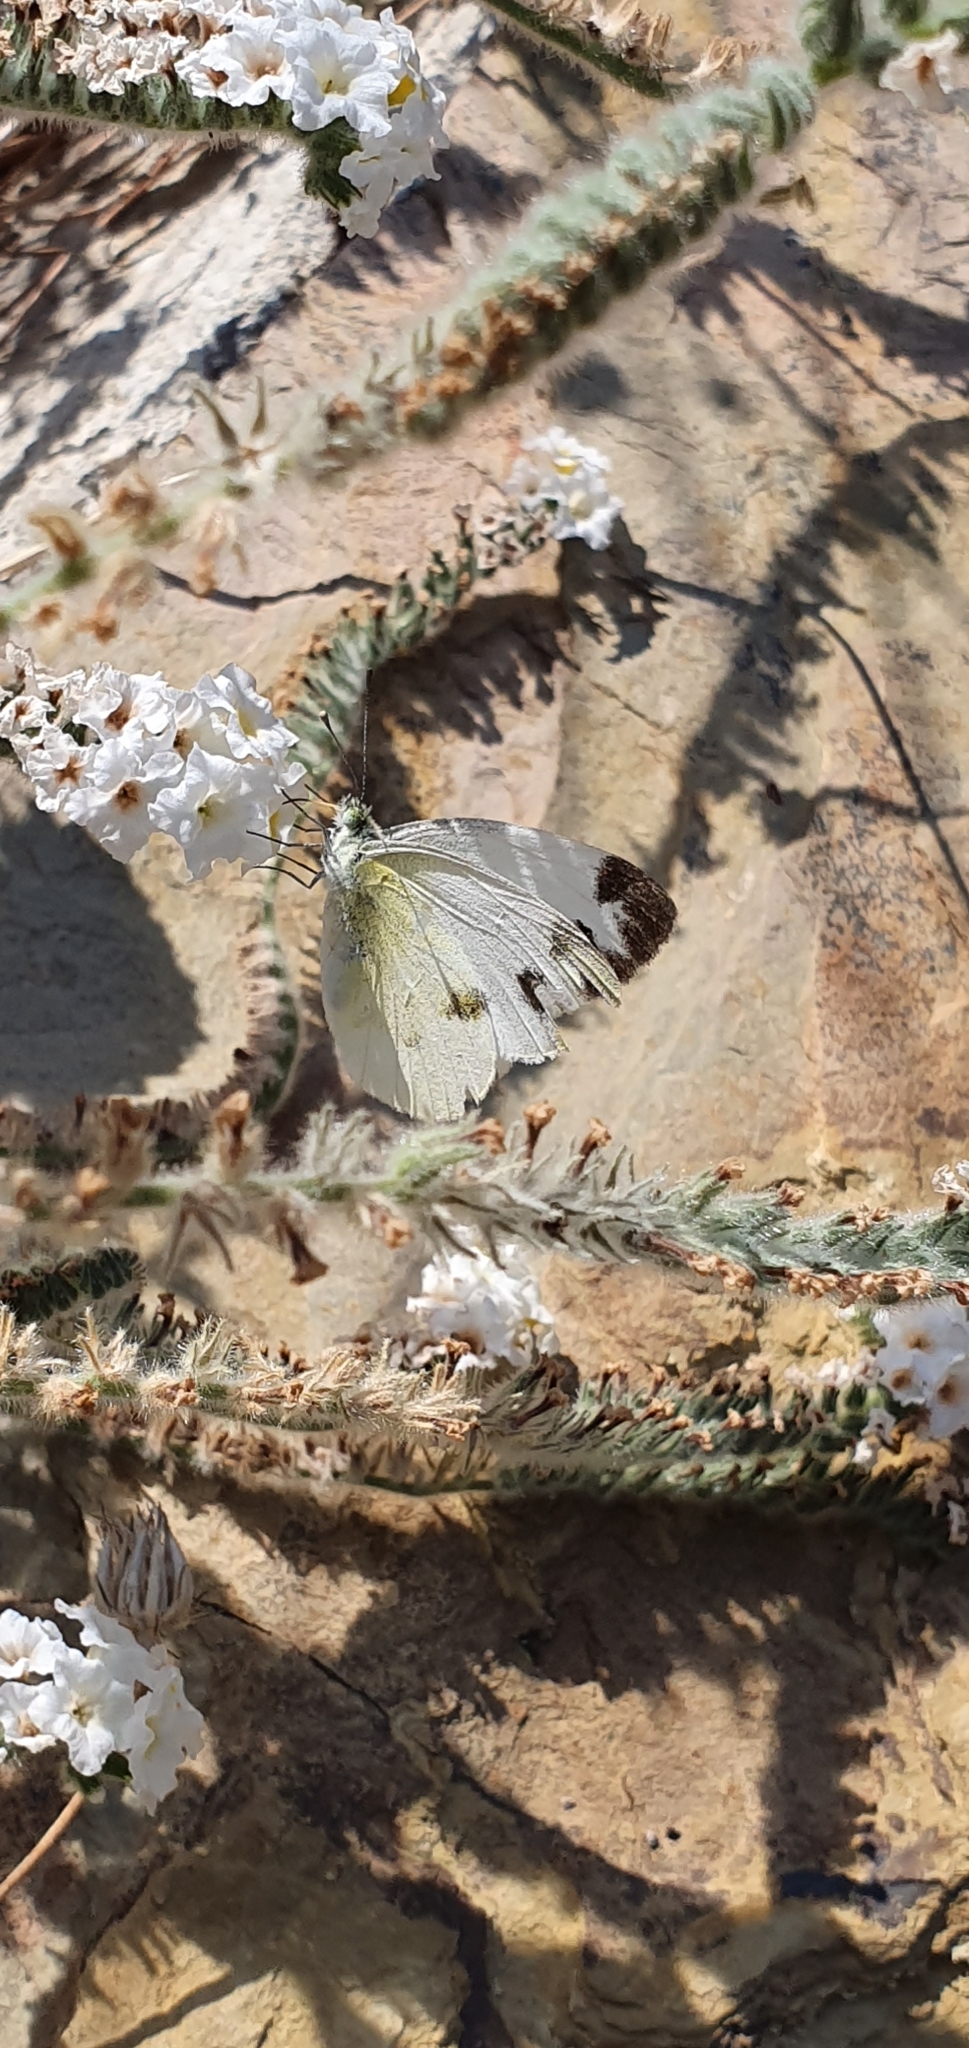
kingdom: Animalia
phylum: Arthropoda
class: Insecta
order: Lepidoptera
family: Pieridae
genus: Pieris
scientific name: Pieris krueperi
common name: Krueper's small white
